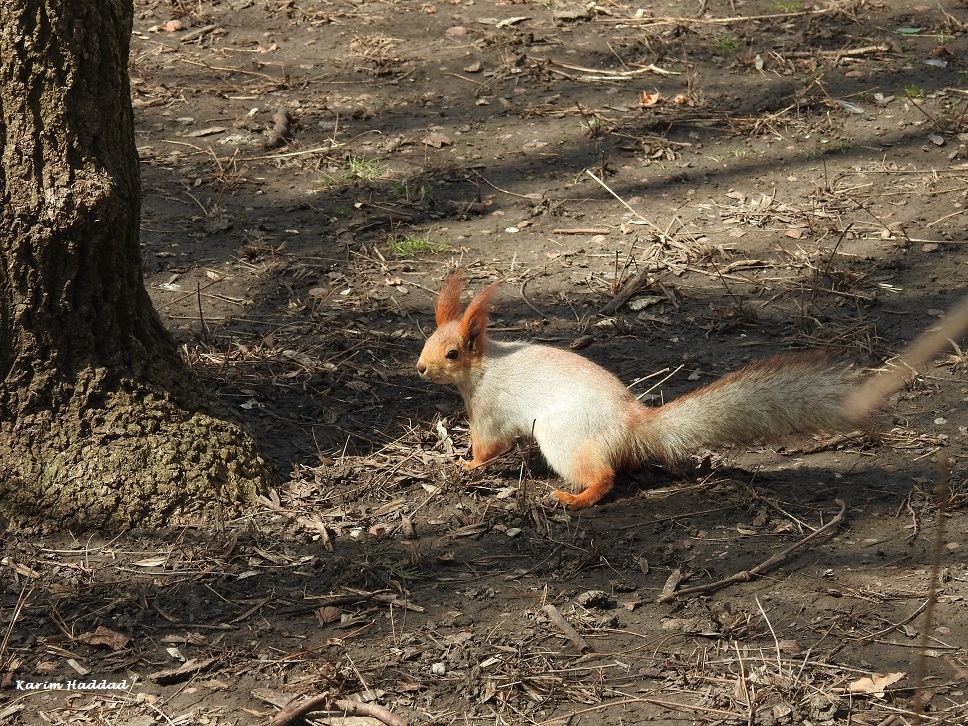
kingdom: Animalia
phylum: Chordata
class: Mammalia
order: Rodentia
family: Sciuridae
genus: Sciurus
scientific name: Sciurus vulgaris
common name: Eurasian red squirrel
